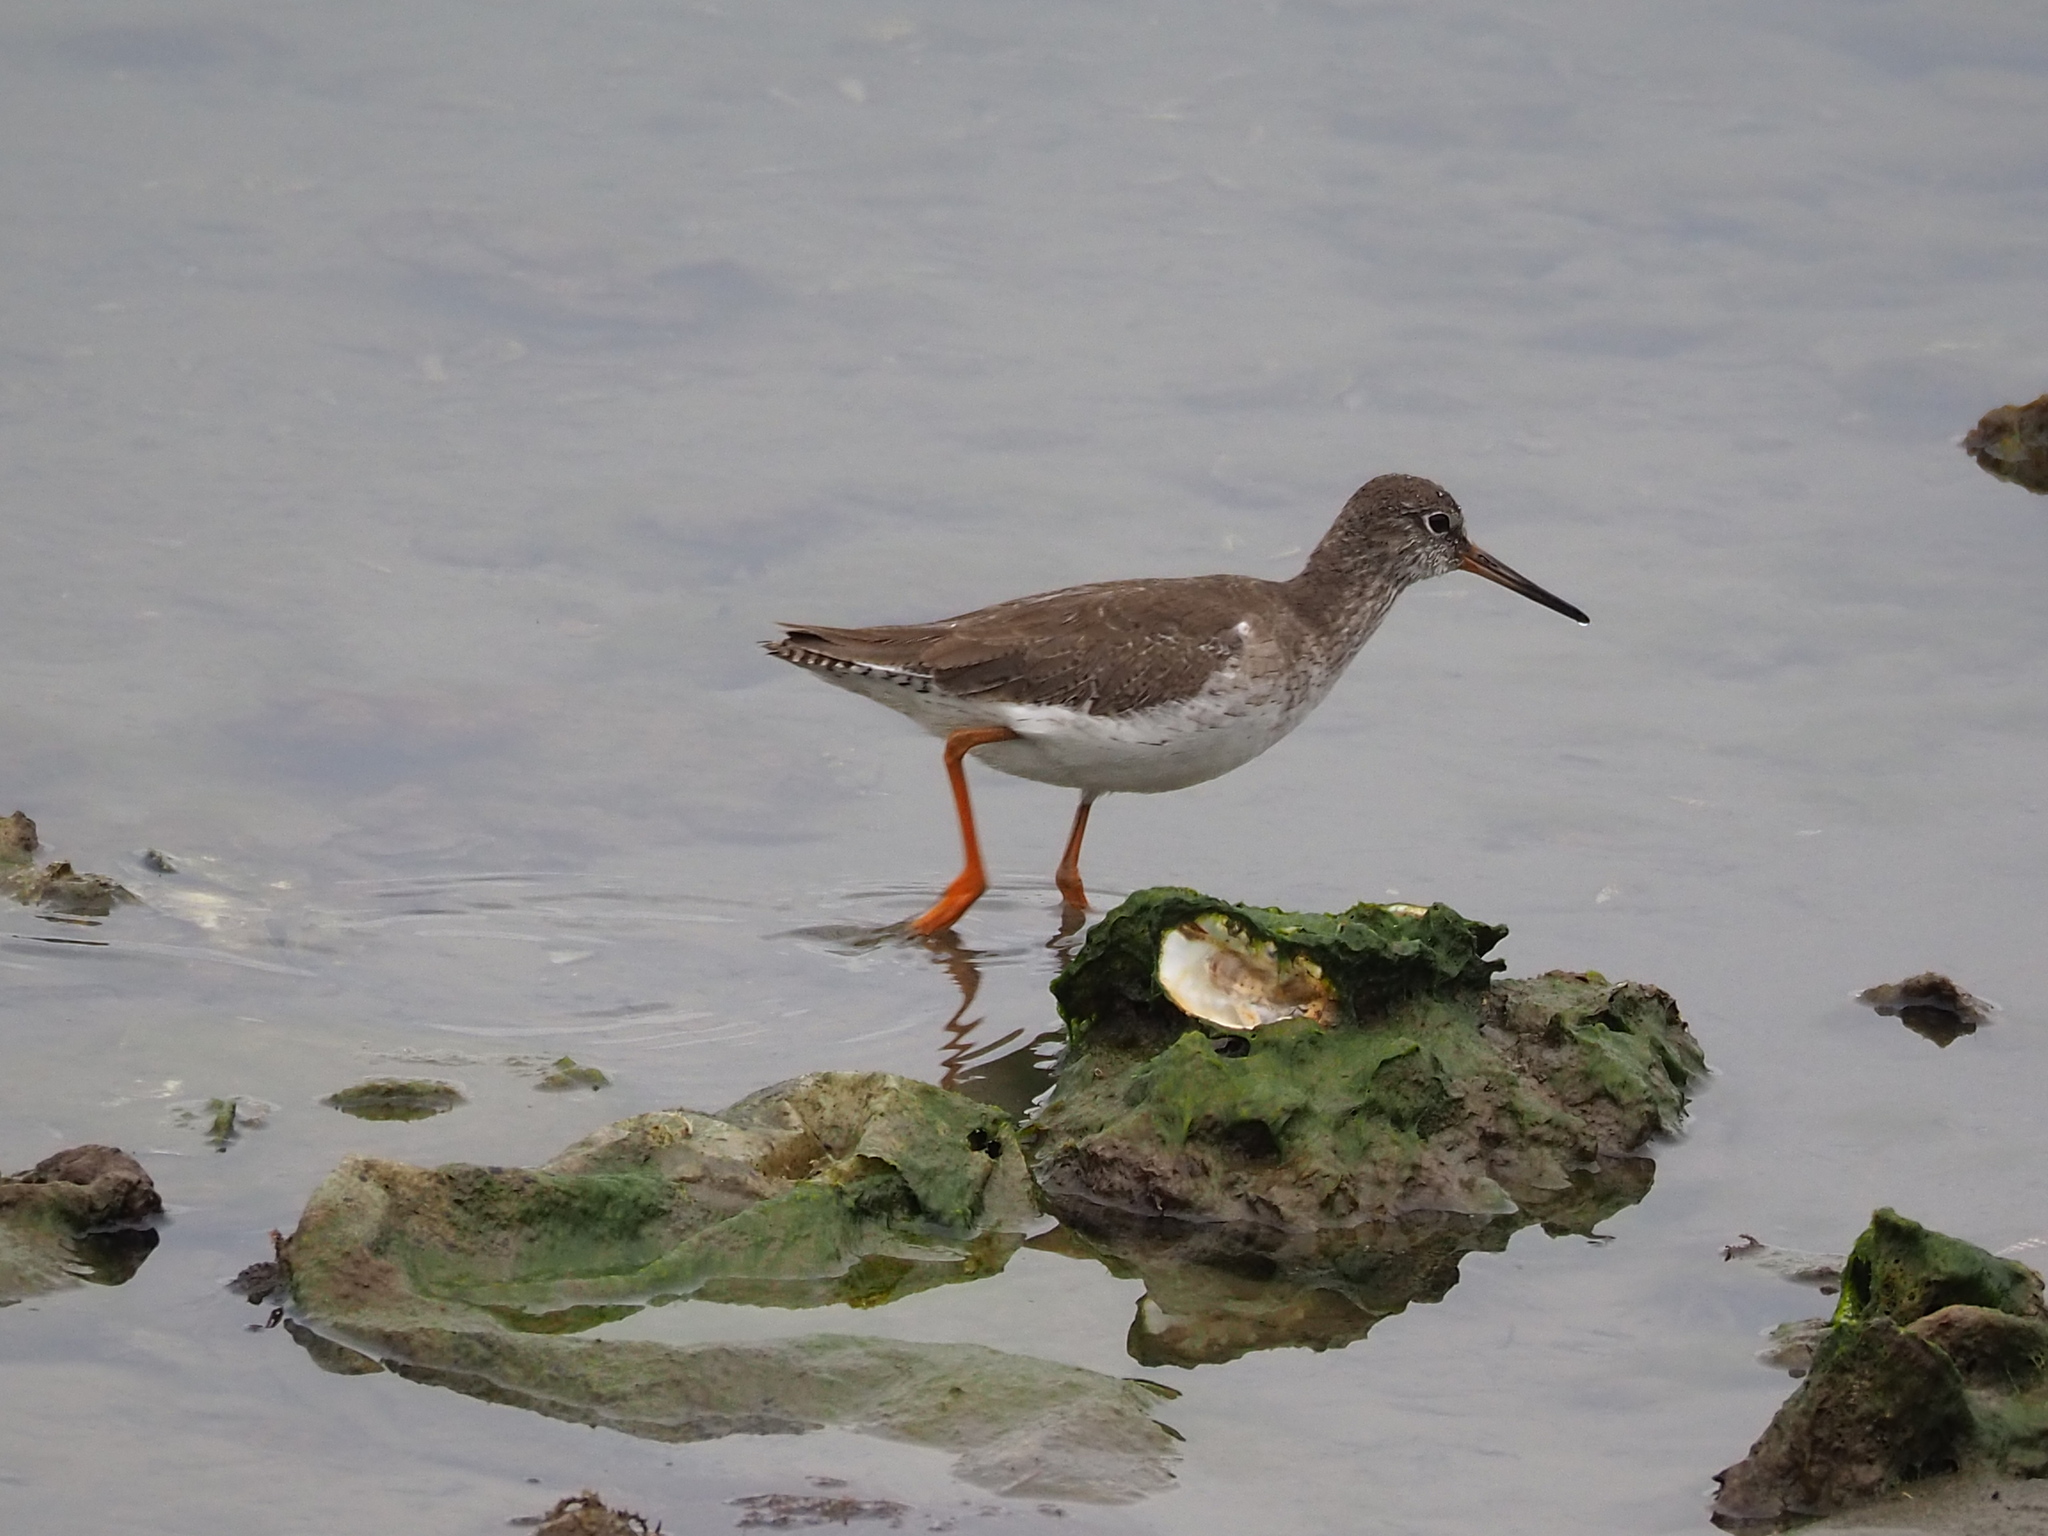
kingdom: Animalia
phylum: Chordata
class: Aves
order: Charadriiformes
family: Scolopacidae
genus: Tringa
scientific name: Tringa totanus
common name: Common redshank
